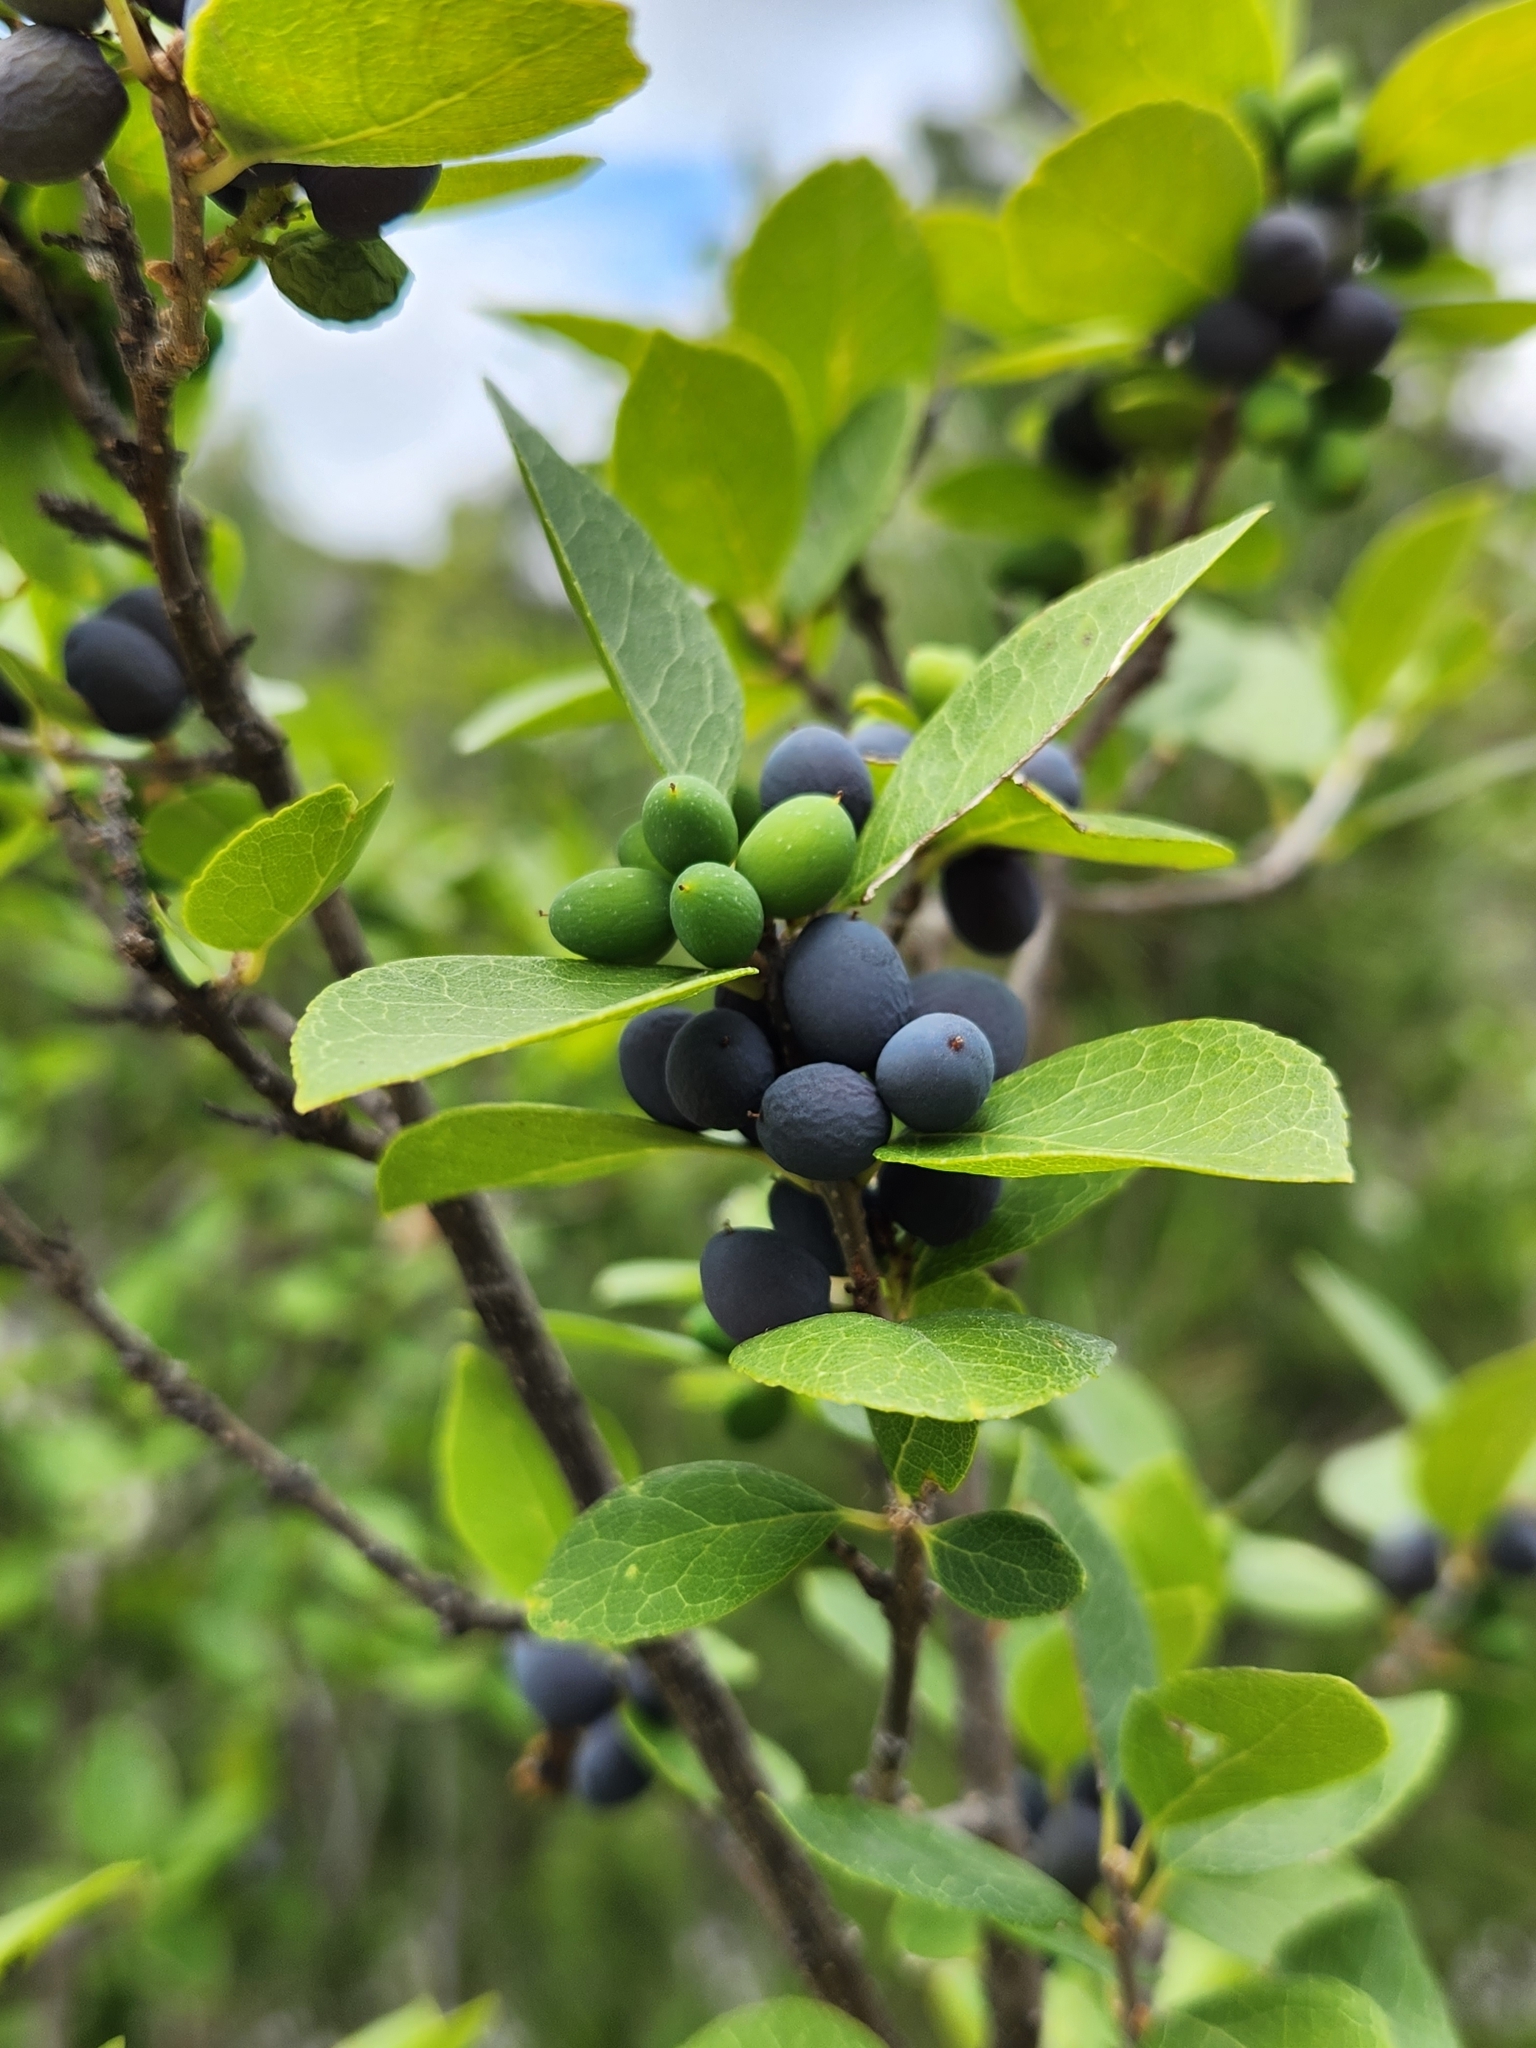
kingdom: Plantae
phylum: Tracheophyta
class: Magnoliopsida
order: Lamiales
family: Oleaceae
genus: Forestiera
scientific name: Forestiera reticulata
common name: Netleaf swamp-privet
